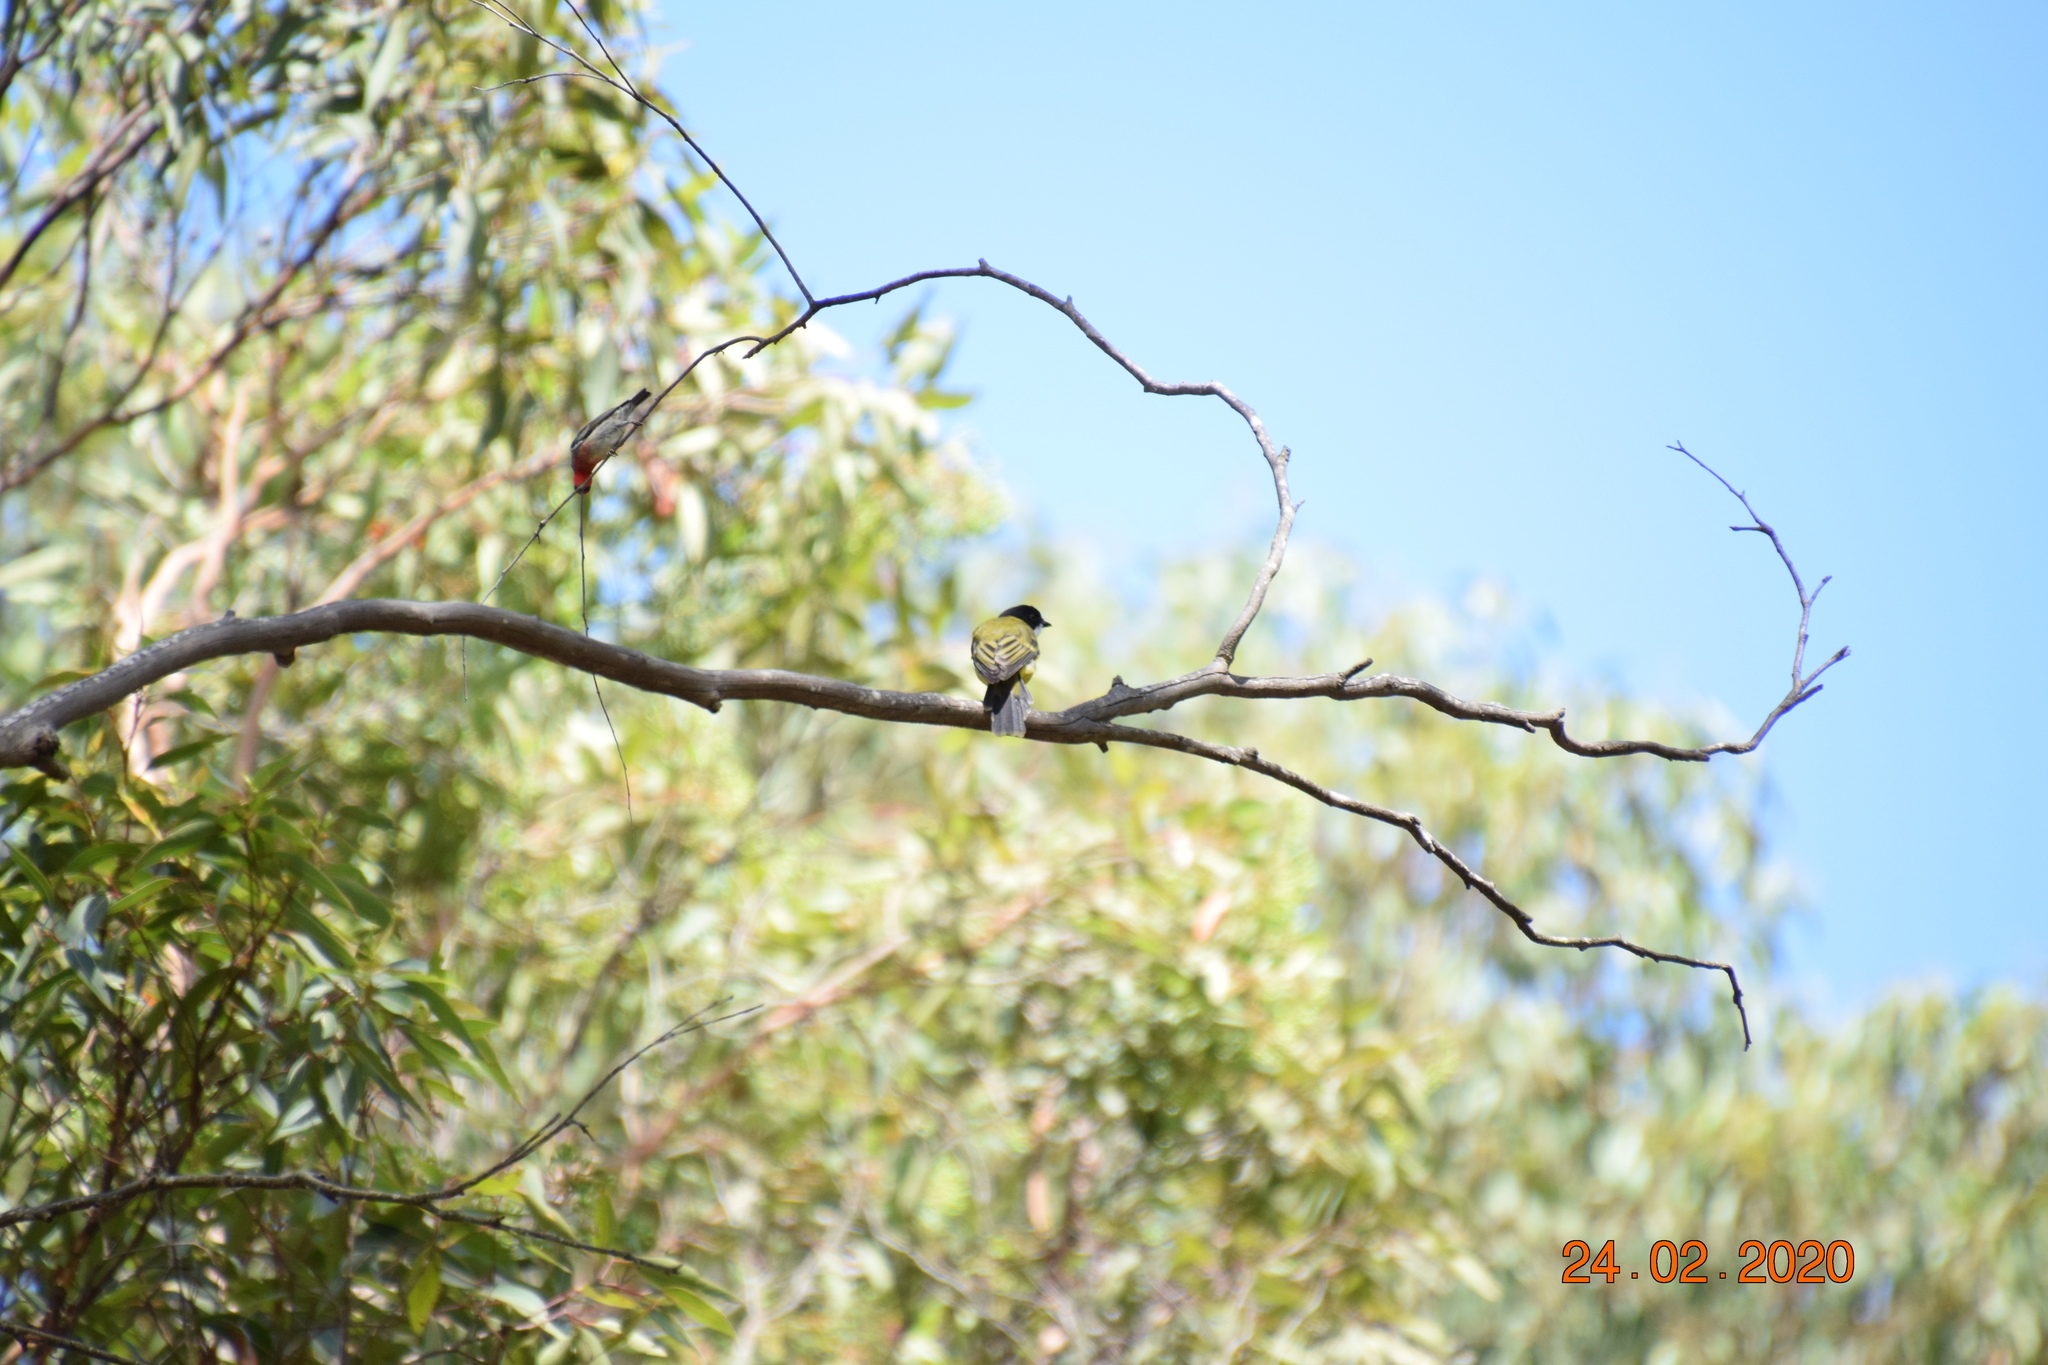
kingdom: Animalia
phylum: Chordata
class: Aves
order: Passeriformes
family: Pachycephalidae
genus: Pachycephala
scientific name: Pachycephala pectoralis
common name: Australian golden whistler
